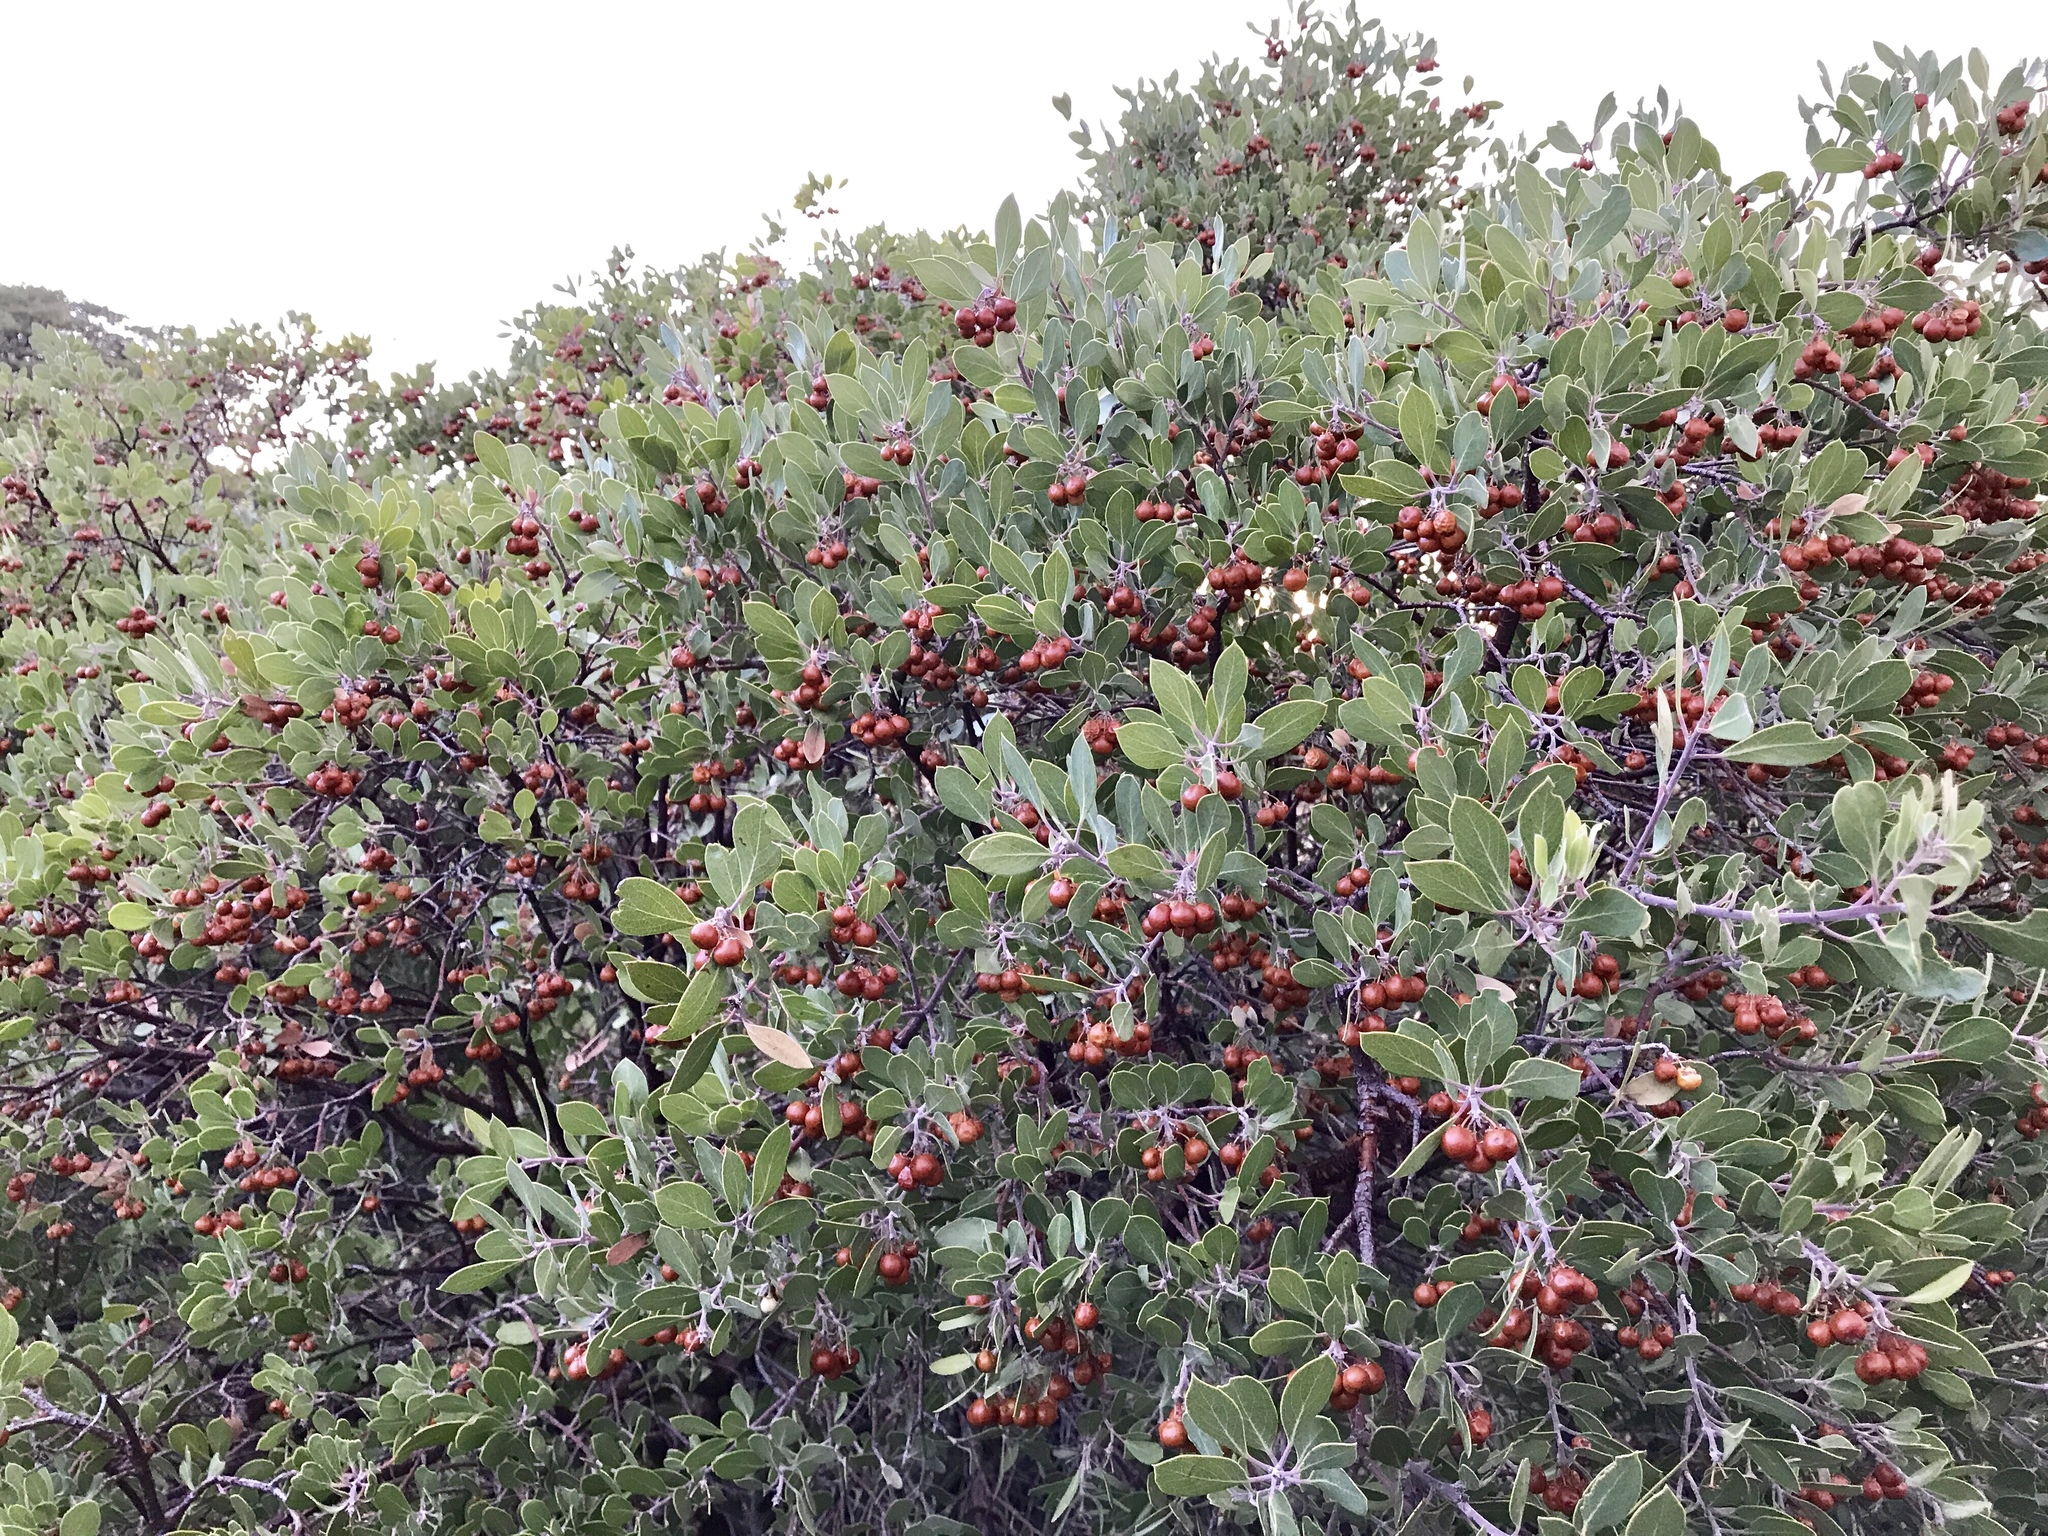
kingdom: Plantae
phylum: Tracheophyta
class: Magnoliopsida
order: Ericales
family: Ericaceae
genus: Arctostaphylos
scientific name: Arctostaphylos pungens
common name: Mexican manzanita
